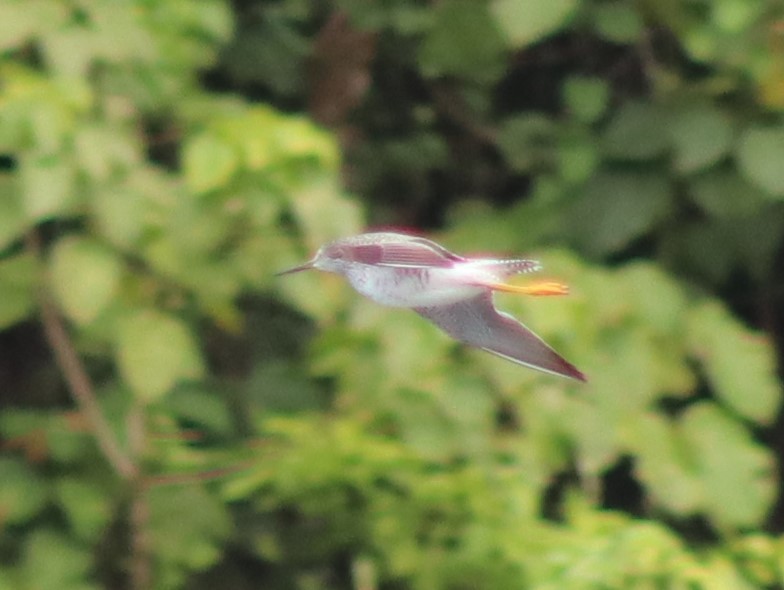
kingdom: Animalia
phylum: Chordata
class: Aves
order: Charadriiformes
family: Scolopacidae
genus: Tringa
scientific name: Tringa flavipes
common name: Lesser yellowlegs
